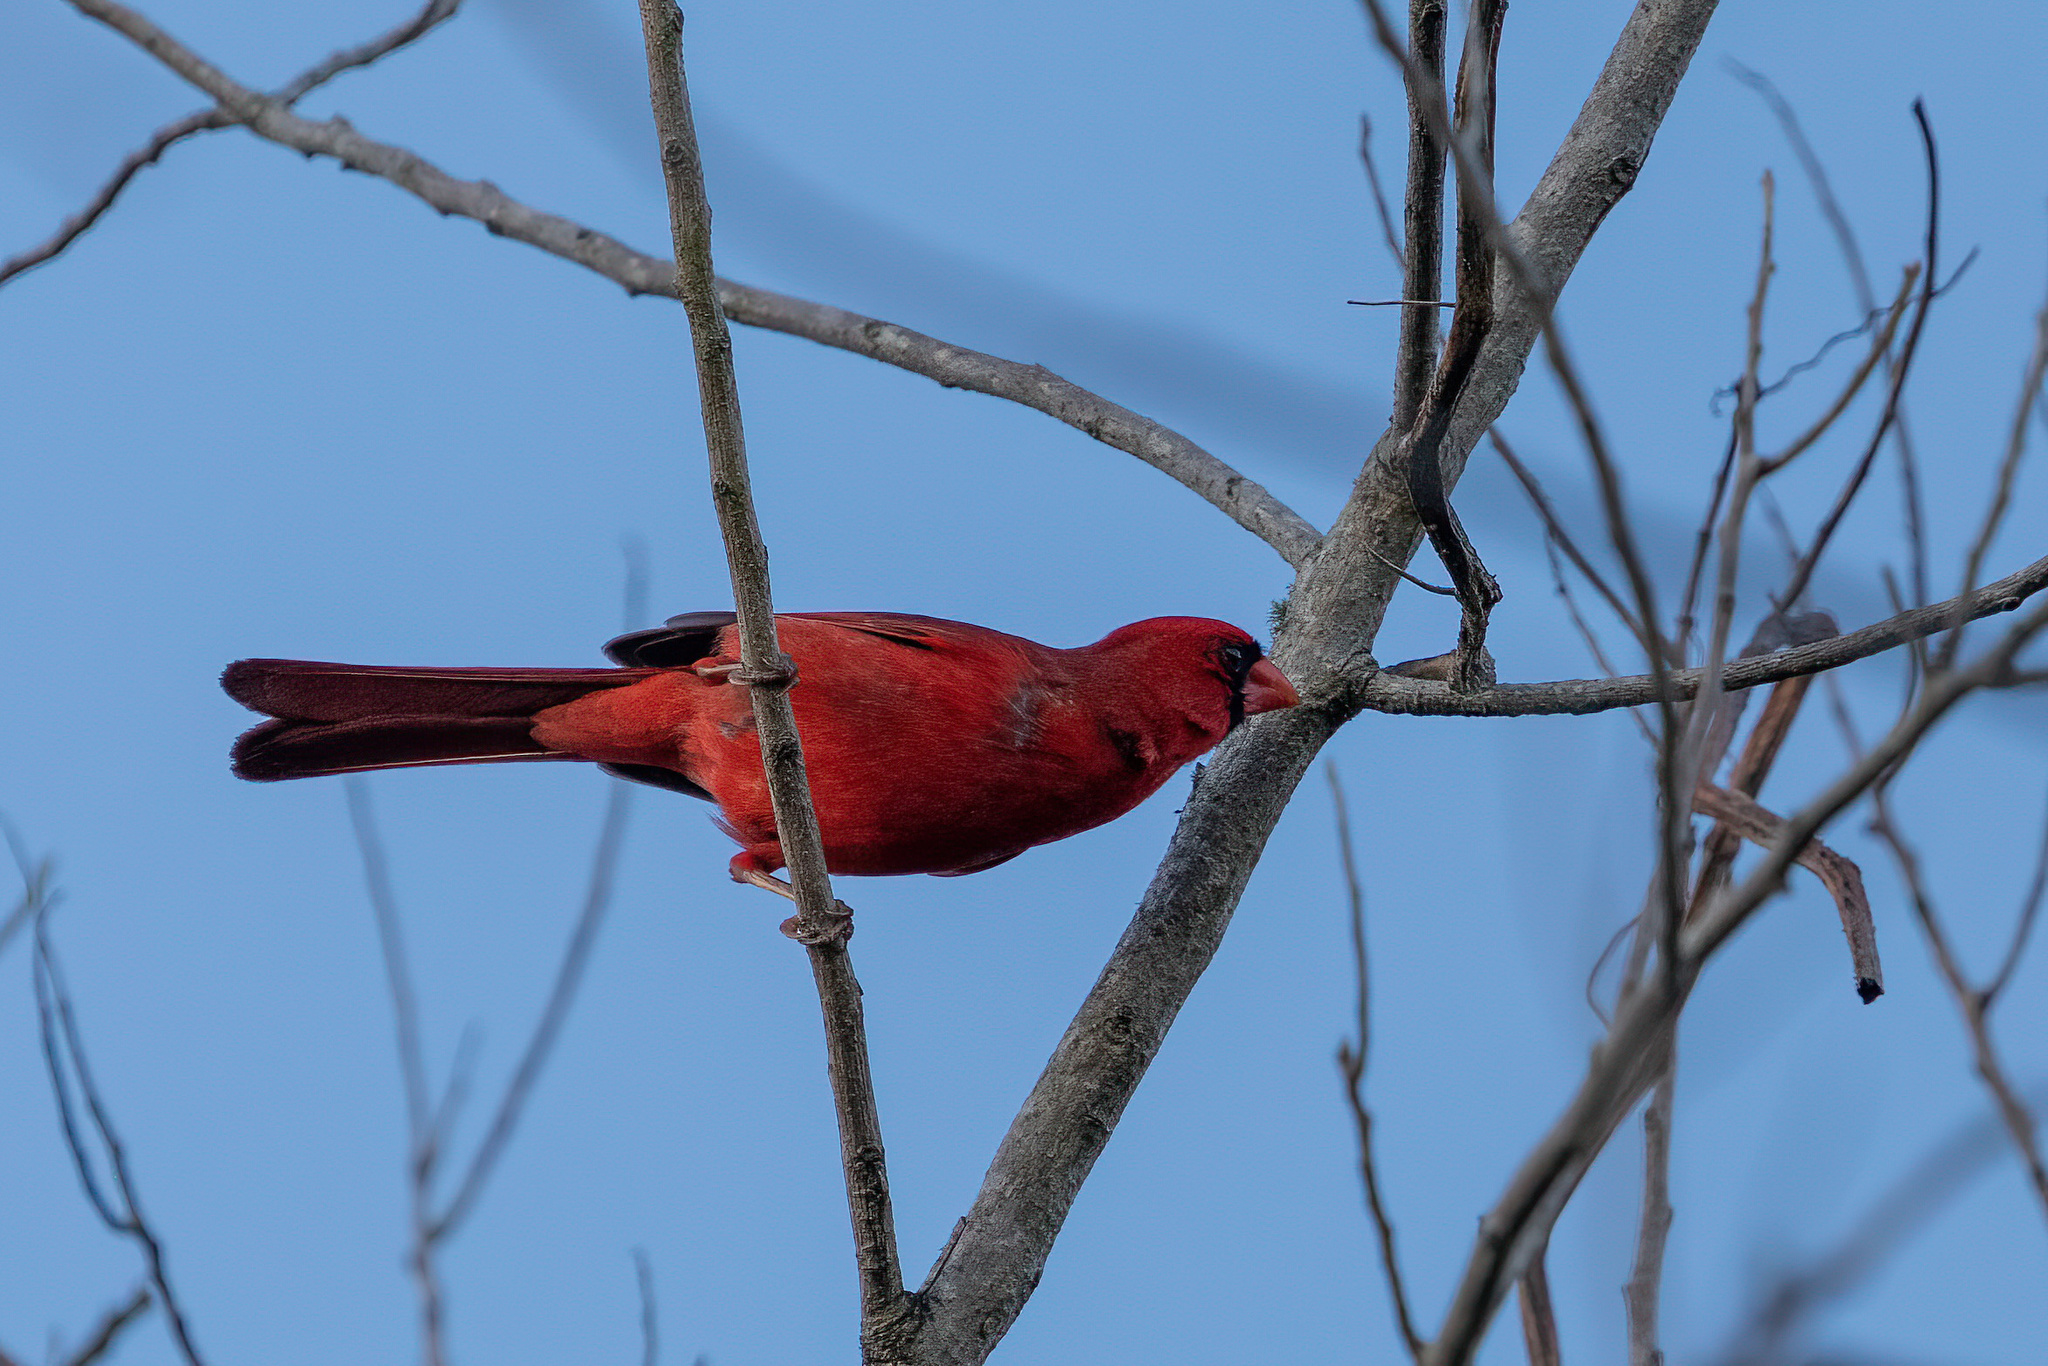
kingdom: Animalia
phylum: Chordata
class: Aves
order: Passeriformes
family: Cardinalidae
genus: Cardinalis
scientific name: Cardinalis cardinalis
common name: Northern cardinal
